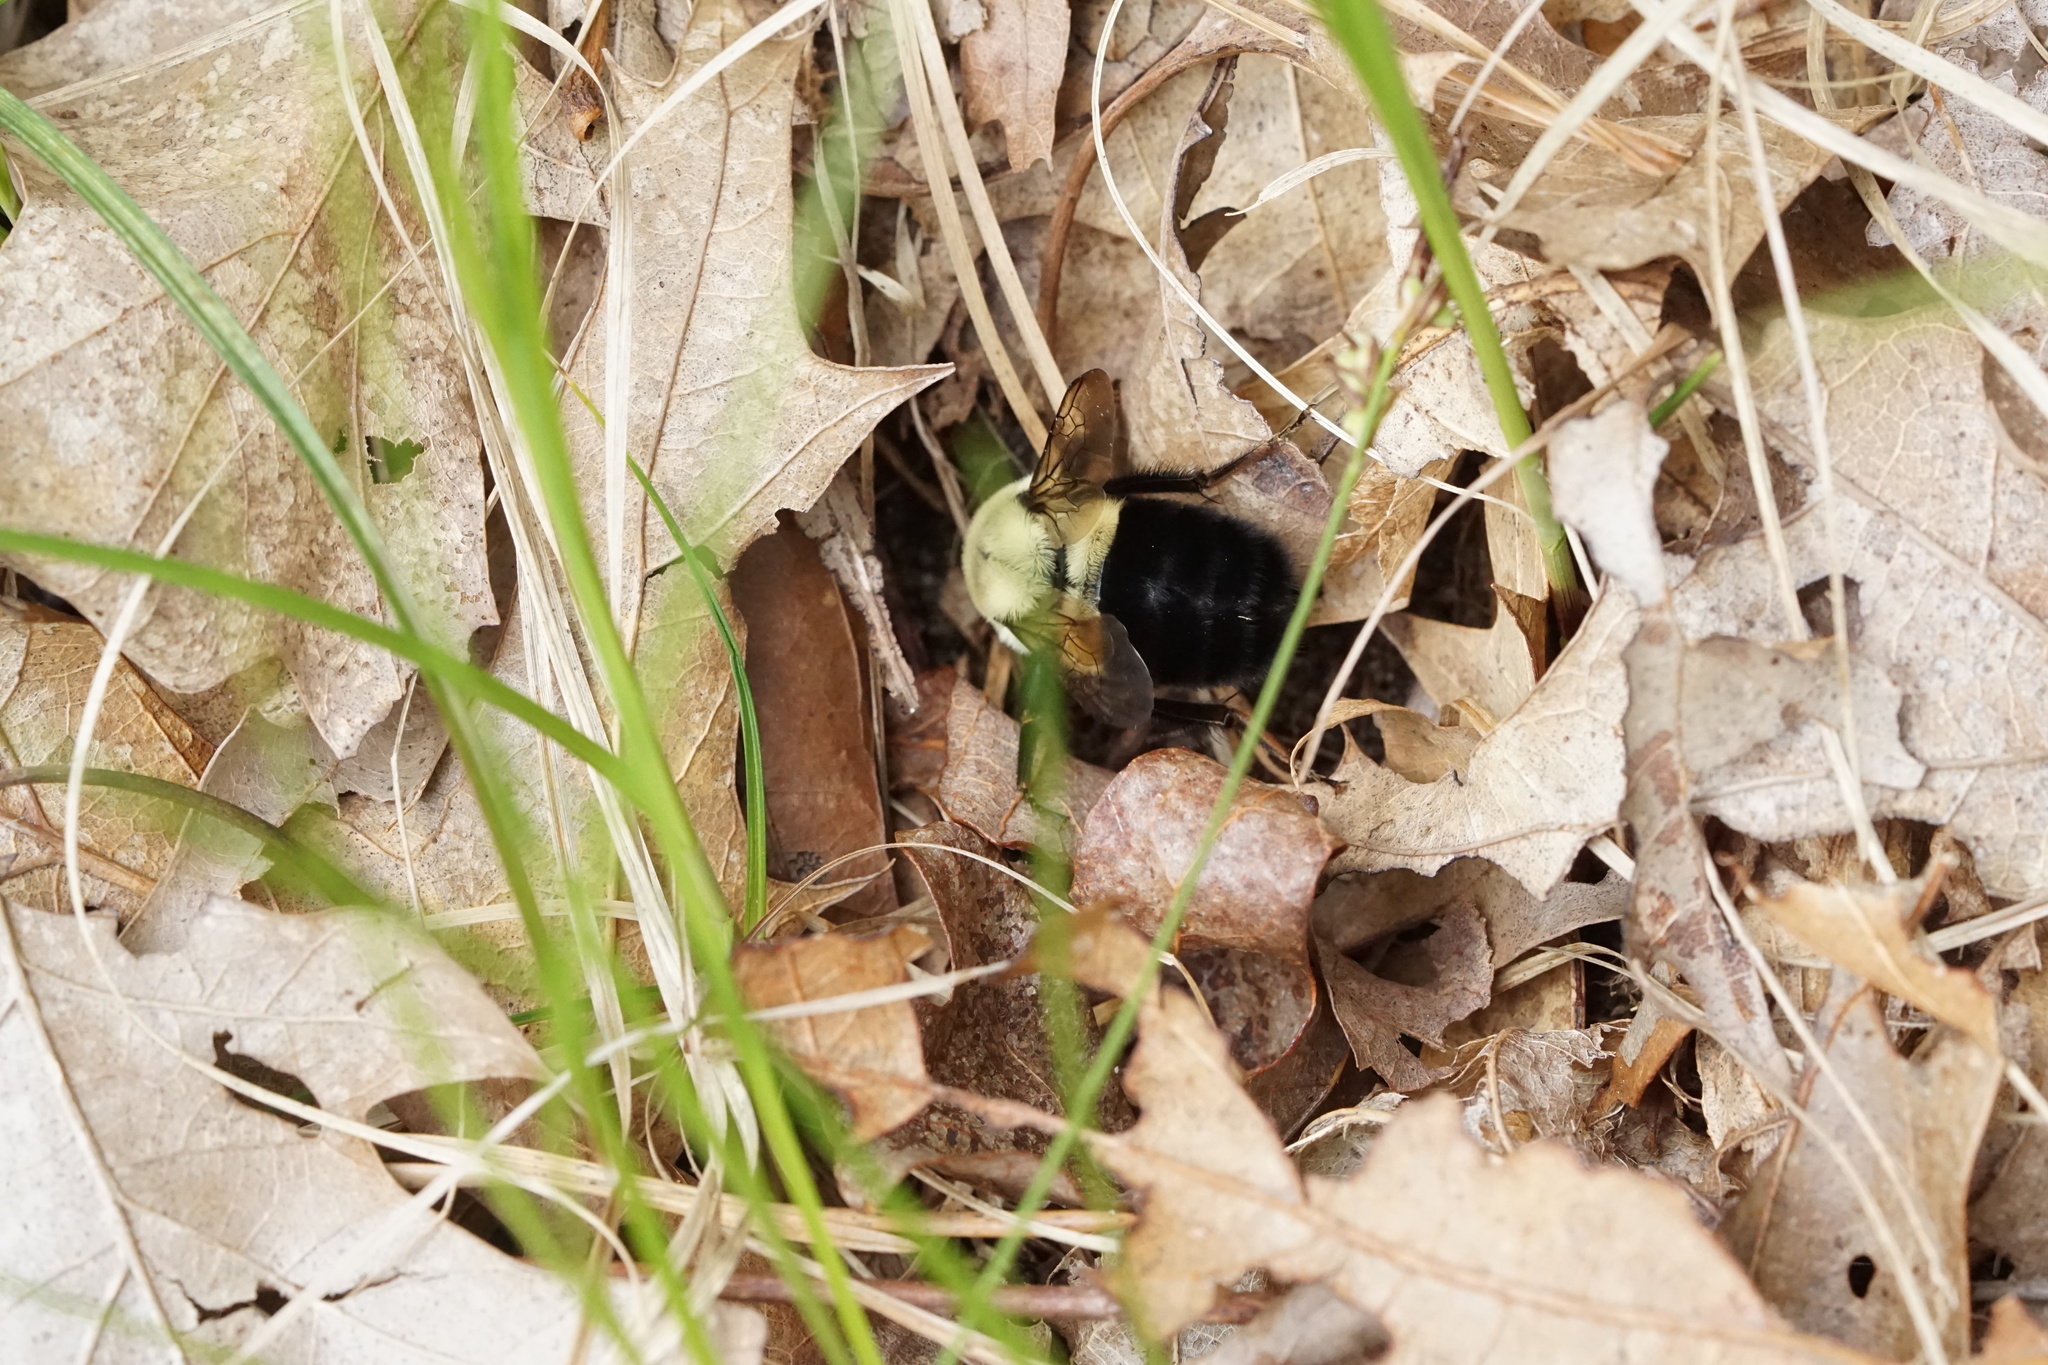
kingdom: Animalia
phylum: Arthropoda
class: Insecta
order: Hymenoptera
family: Apidae
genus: Bombus
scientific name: Bombus impatiens
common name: Common eastern bumble bee
